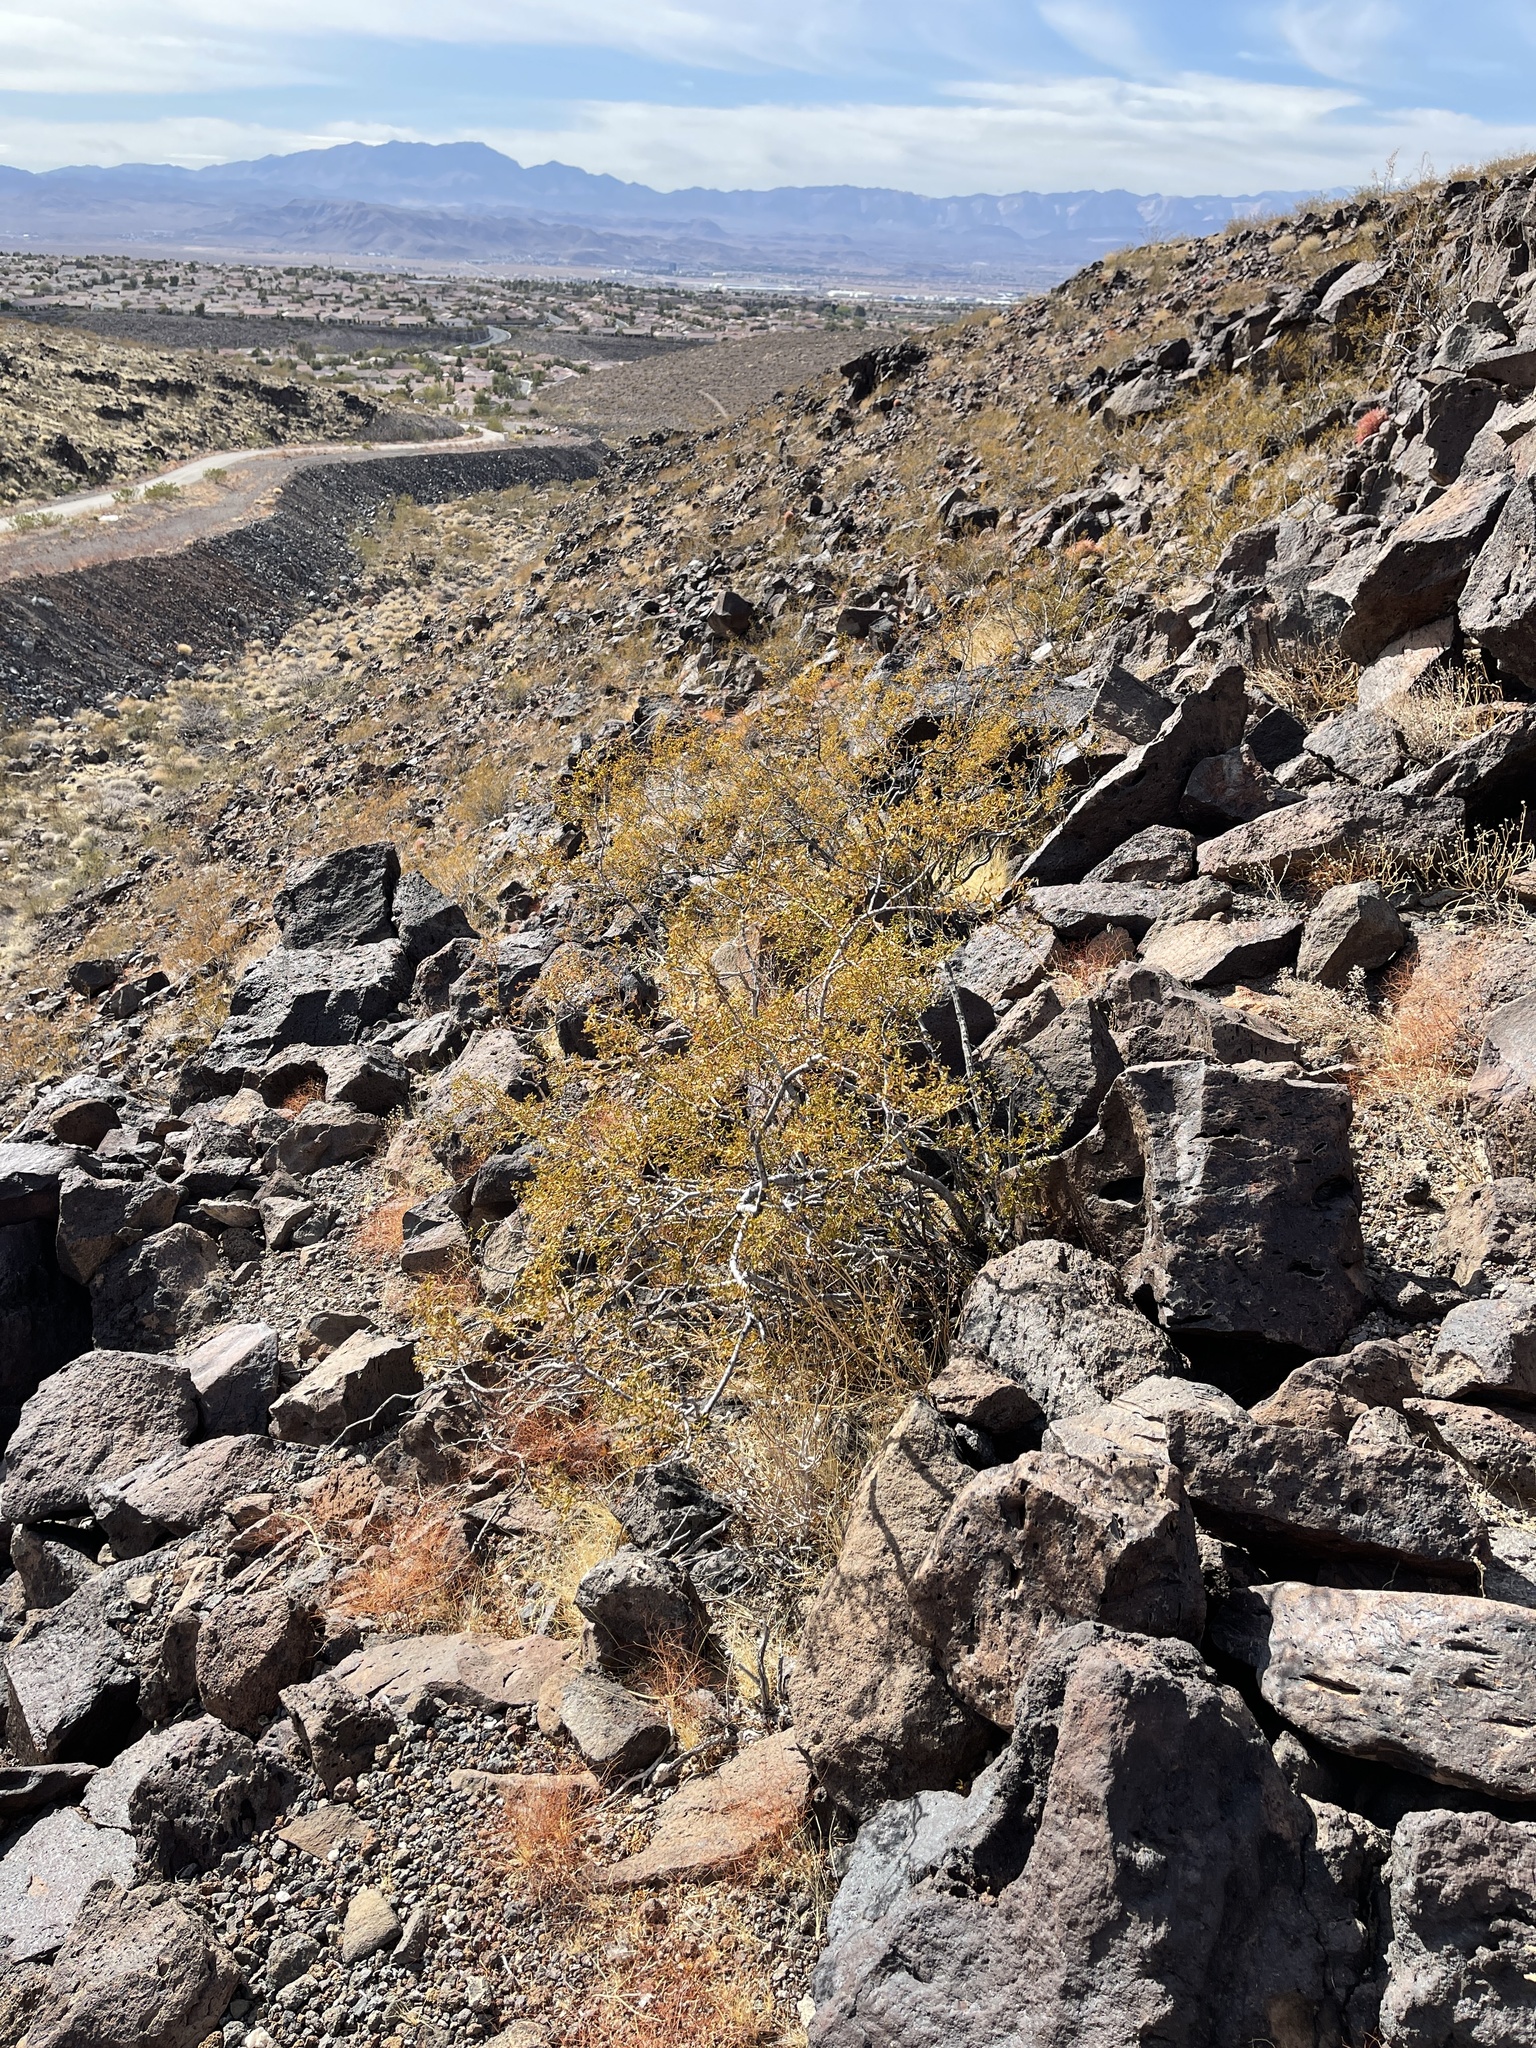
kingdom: Plantae
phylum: Tracheophyta
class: Magnoliopsida
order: Zygophyllales
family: Zygophyllaceae
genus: Larrea
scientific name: Larrea tridentata
